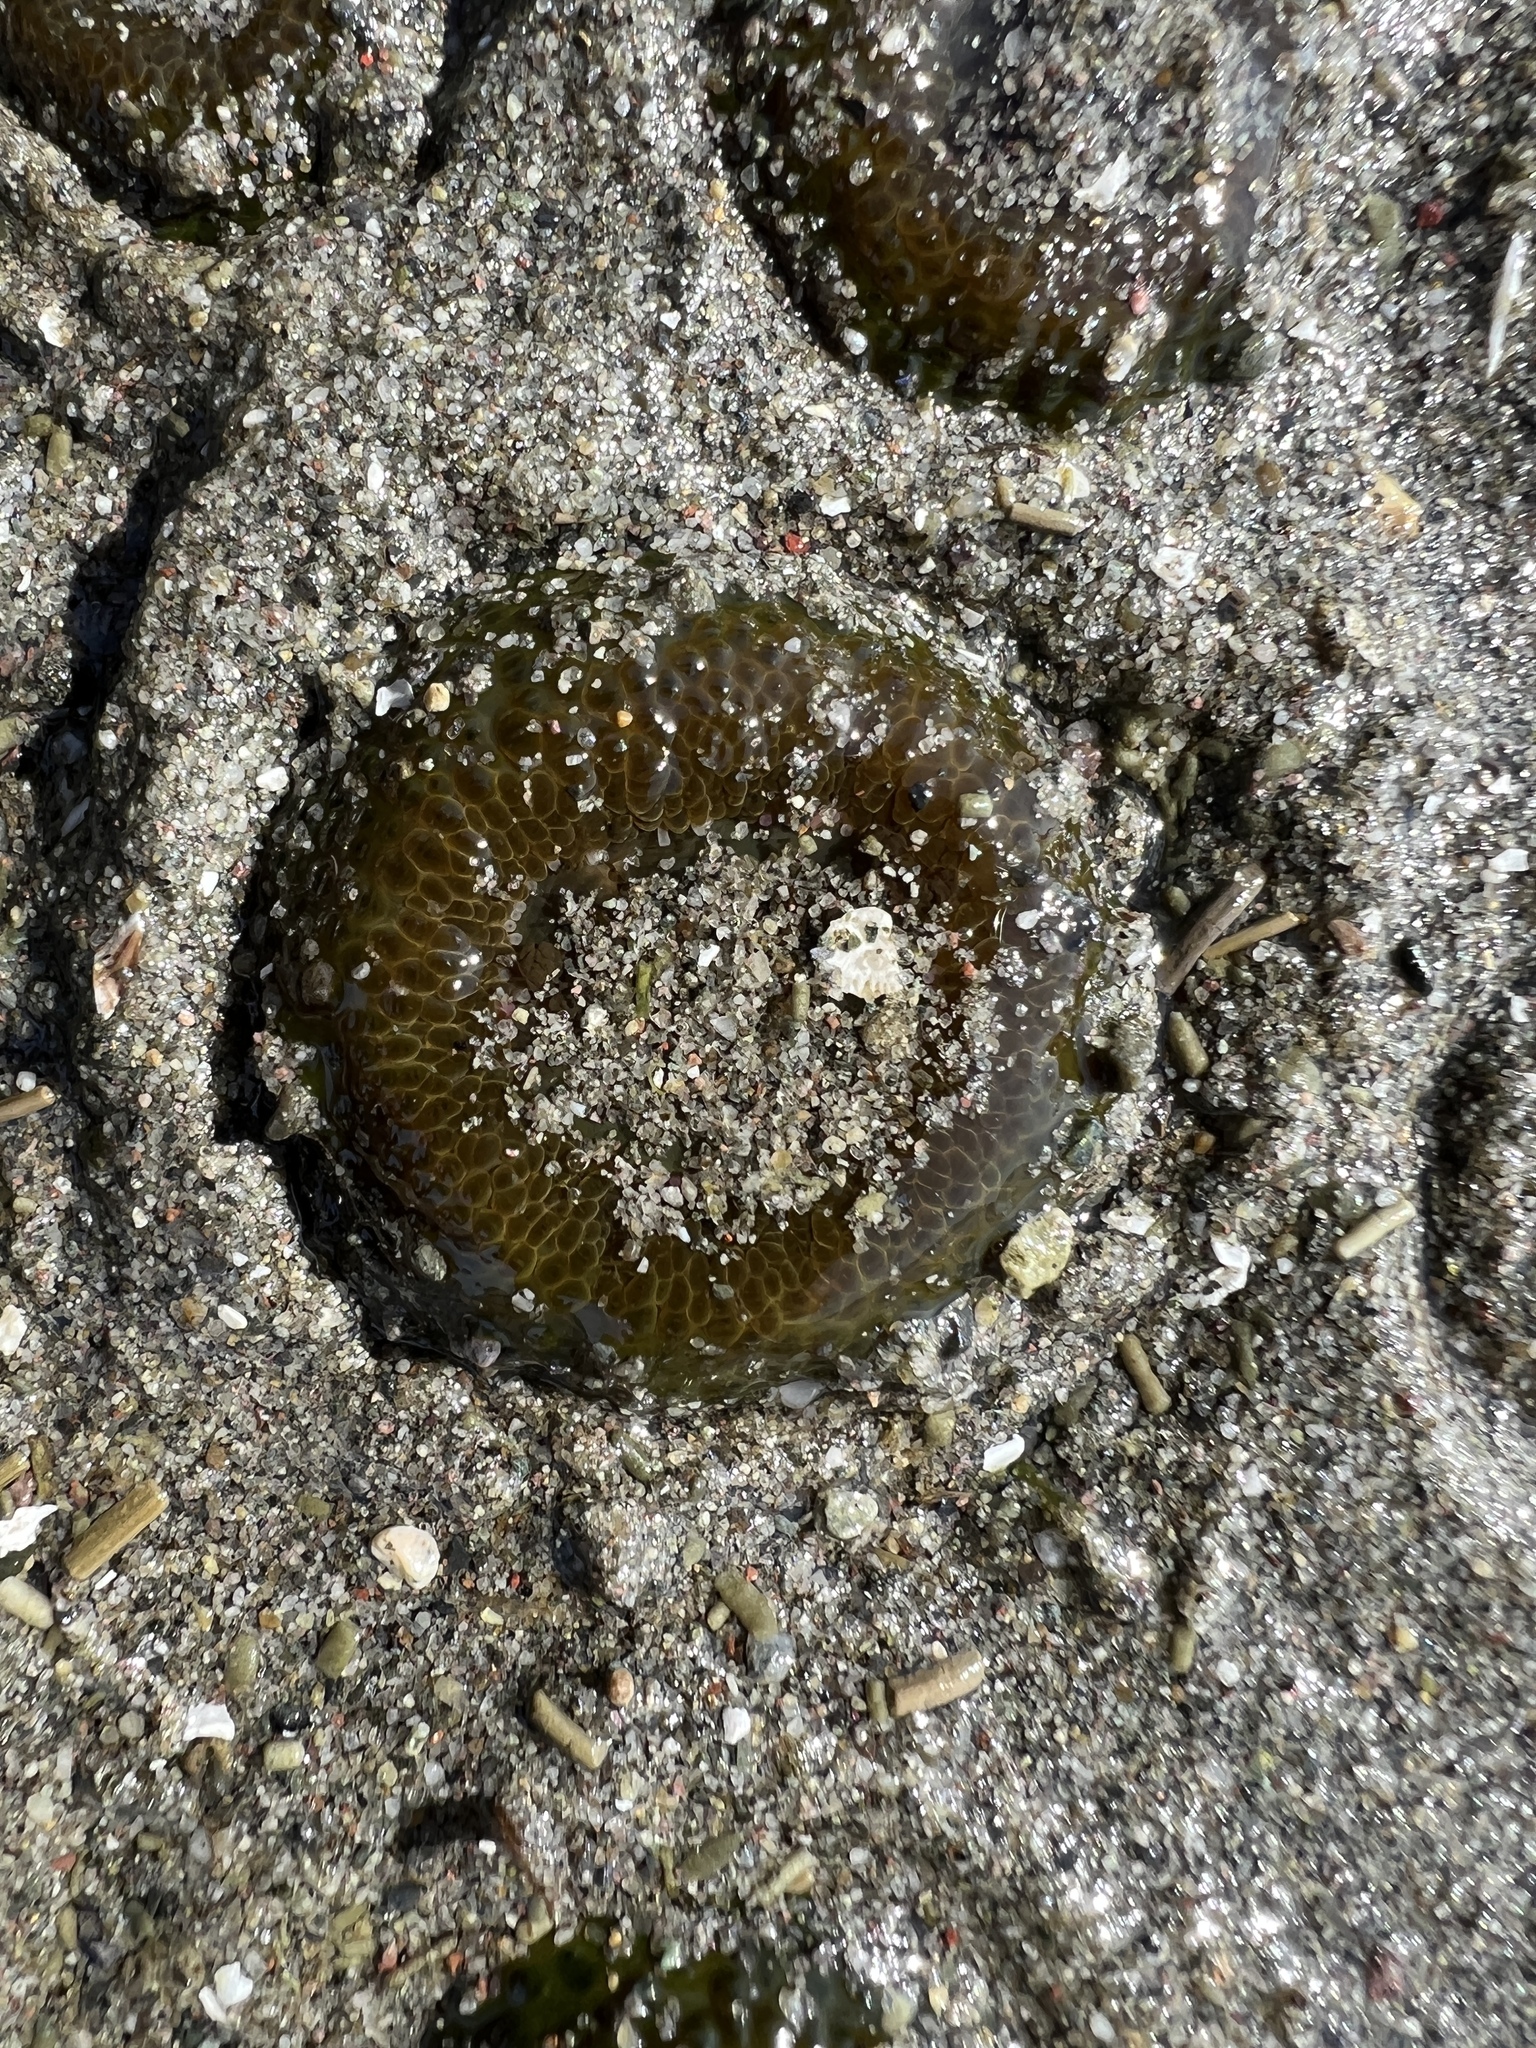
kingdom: Animalia
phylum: Cnidaria
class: Anthozoa
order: Actiniaria
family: Actiniidae
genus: Anthopleura
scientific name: Anthopleura elegantissima
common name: Clonal anemone
